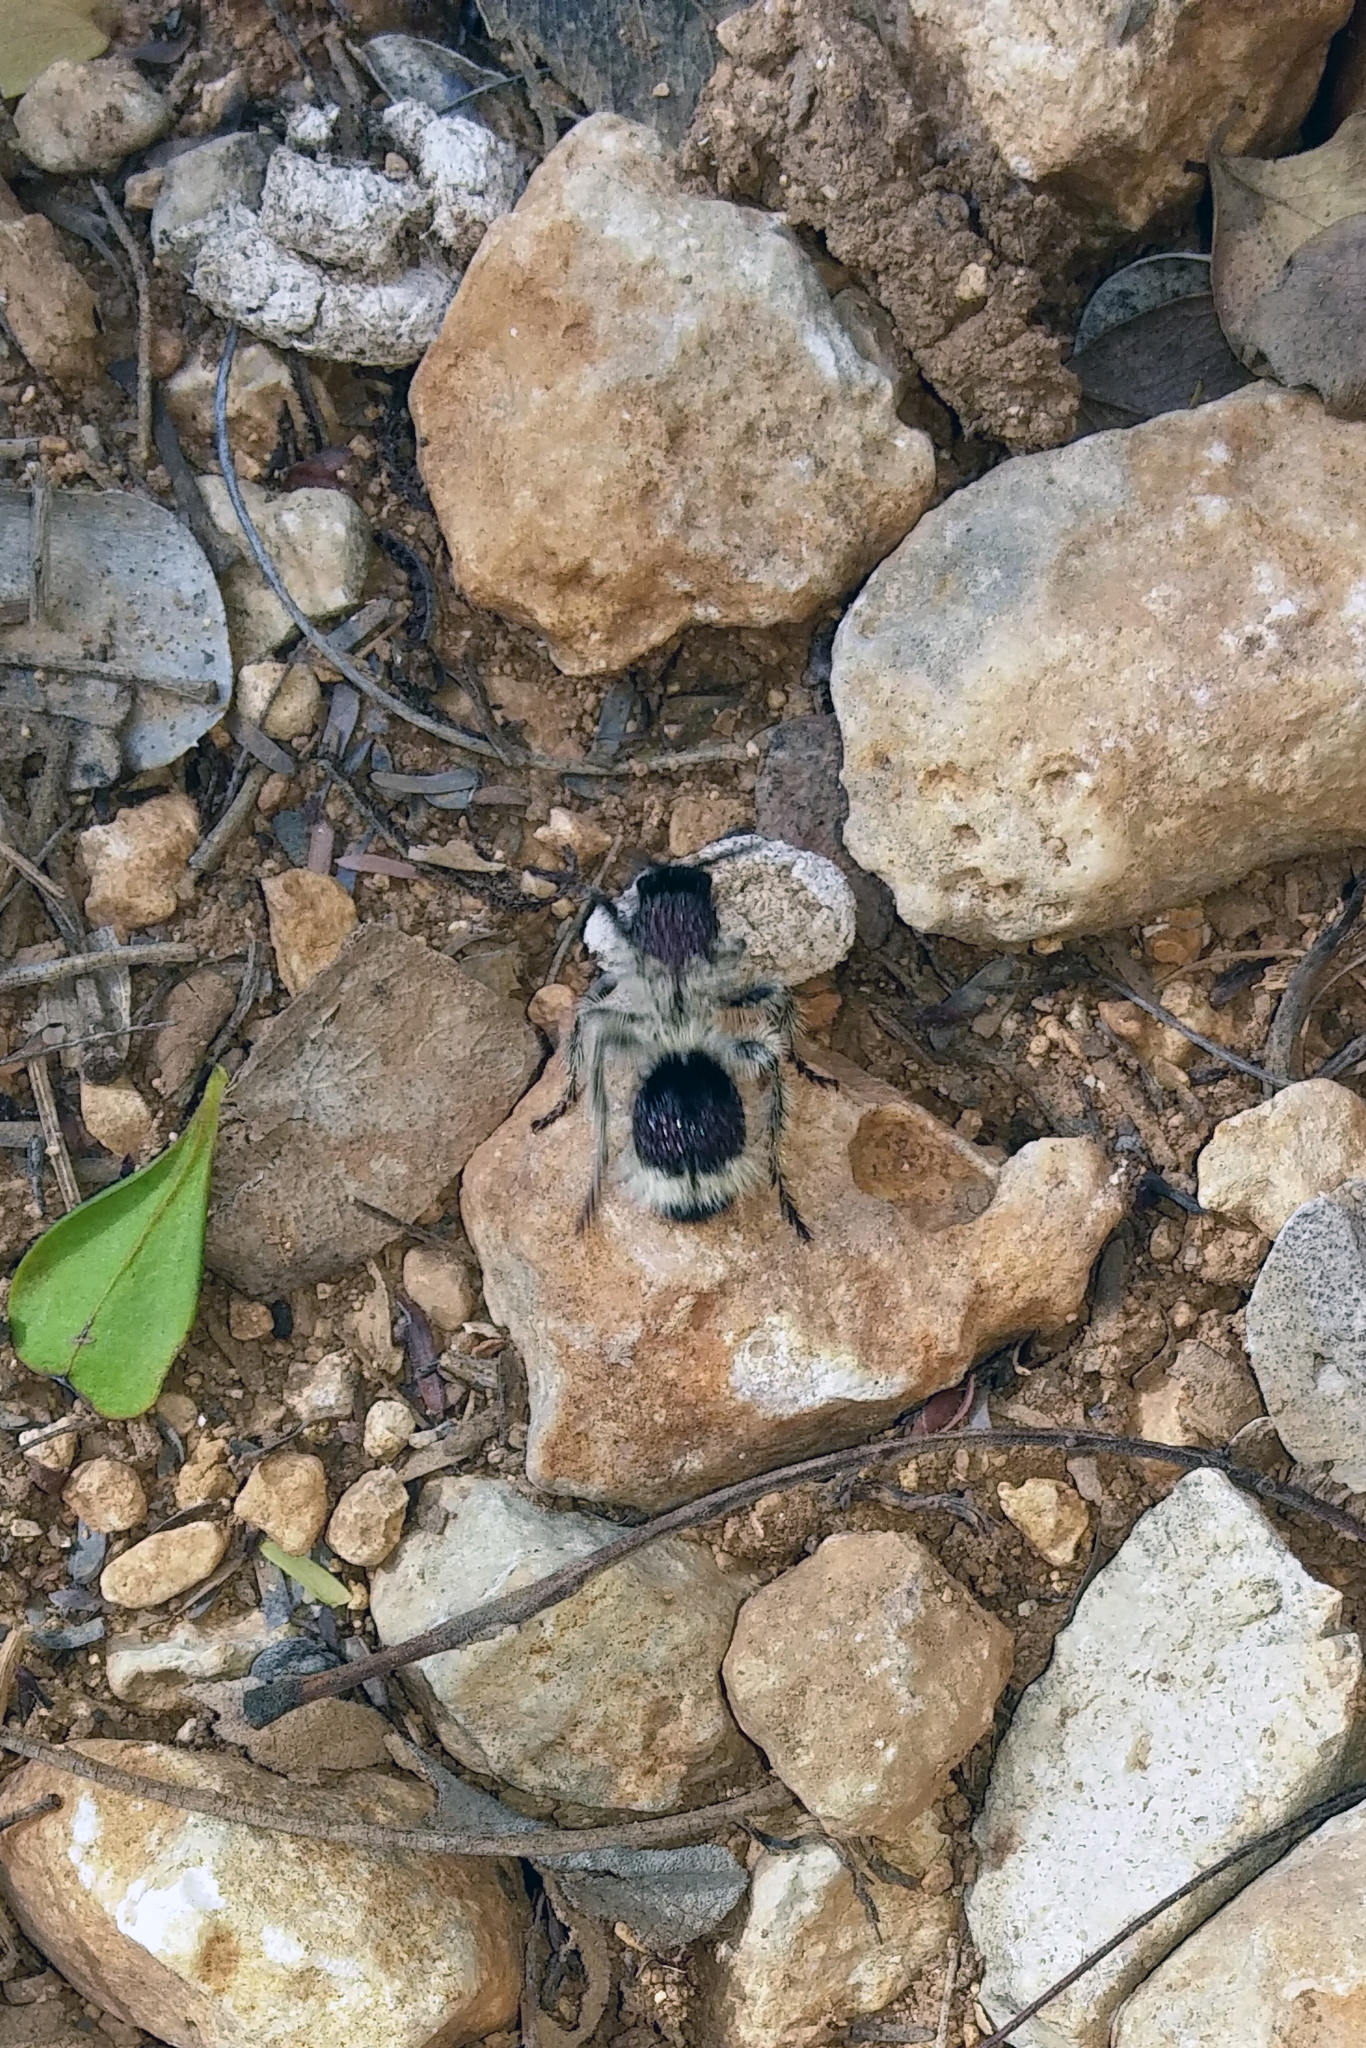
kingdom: Animalia
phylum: Arthropoda
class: Insecta
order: Hymenoptera
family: Mutillidae
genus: Dasymutilla
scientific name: Dasymutilla
